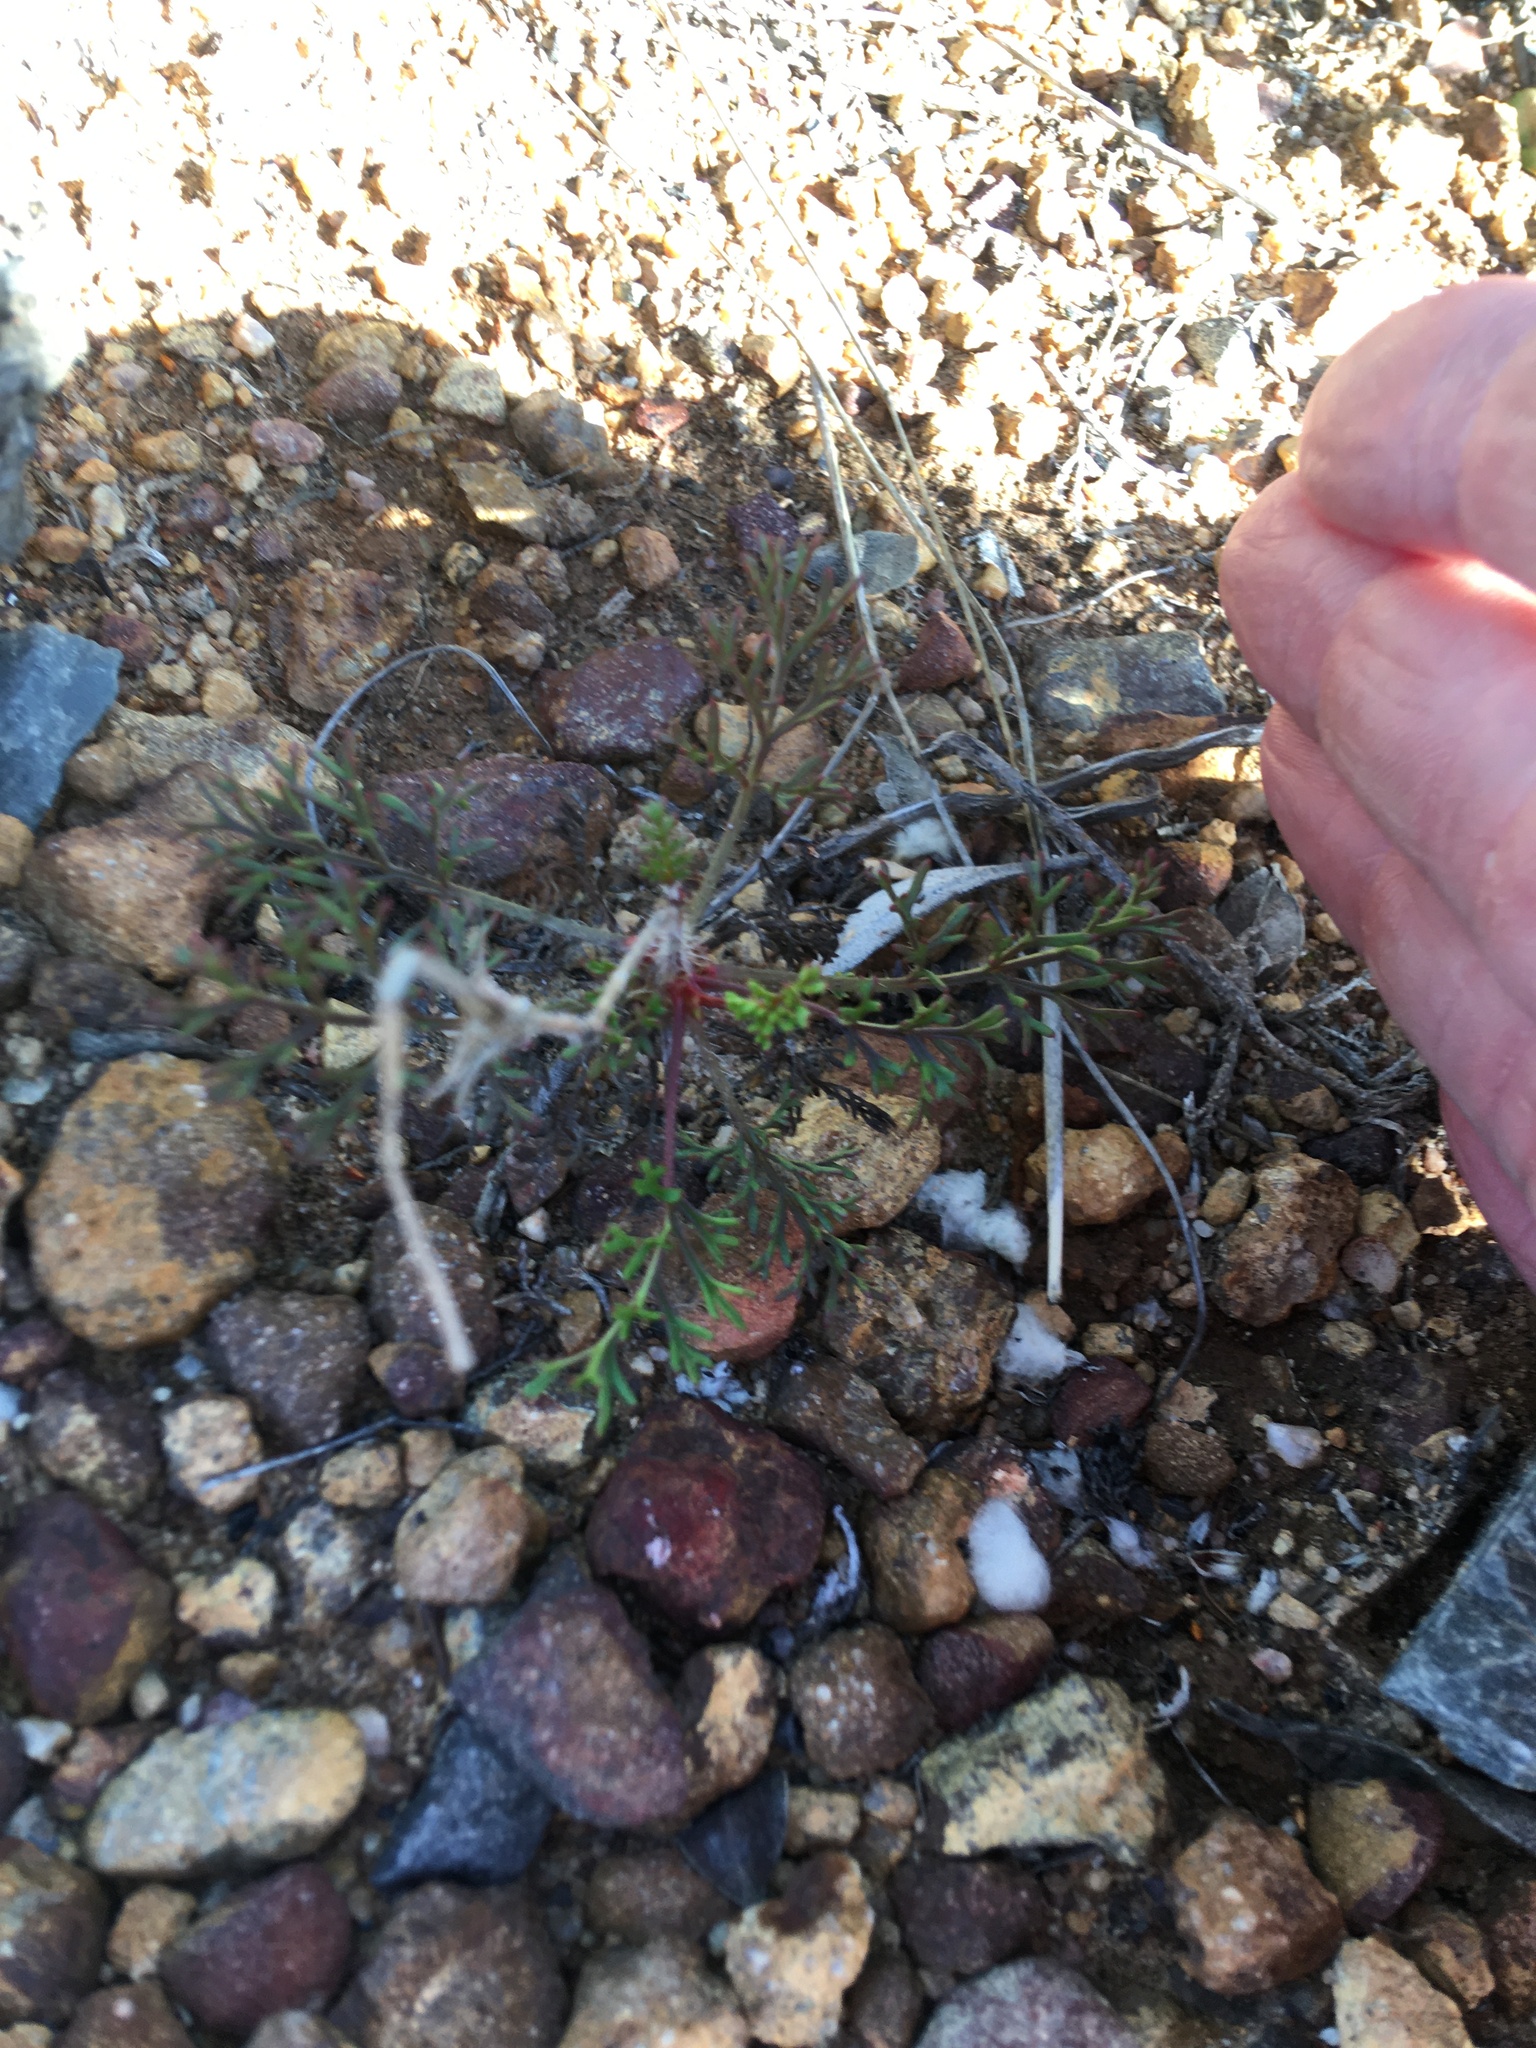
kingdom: Plantae
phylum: Tracheophyta
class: Magnoliopsida
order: Geraniales
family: Geraniaceae
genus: Pelargonium
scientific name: Pelargonium myrrhifolium
